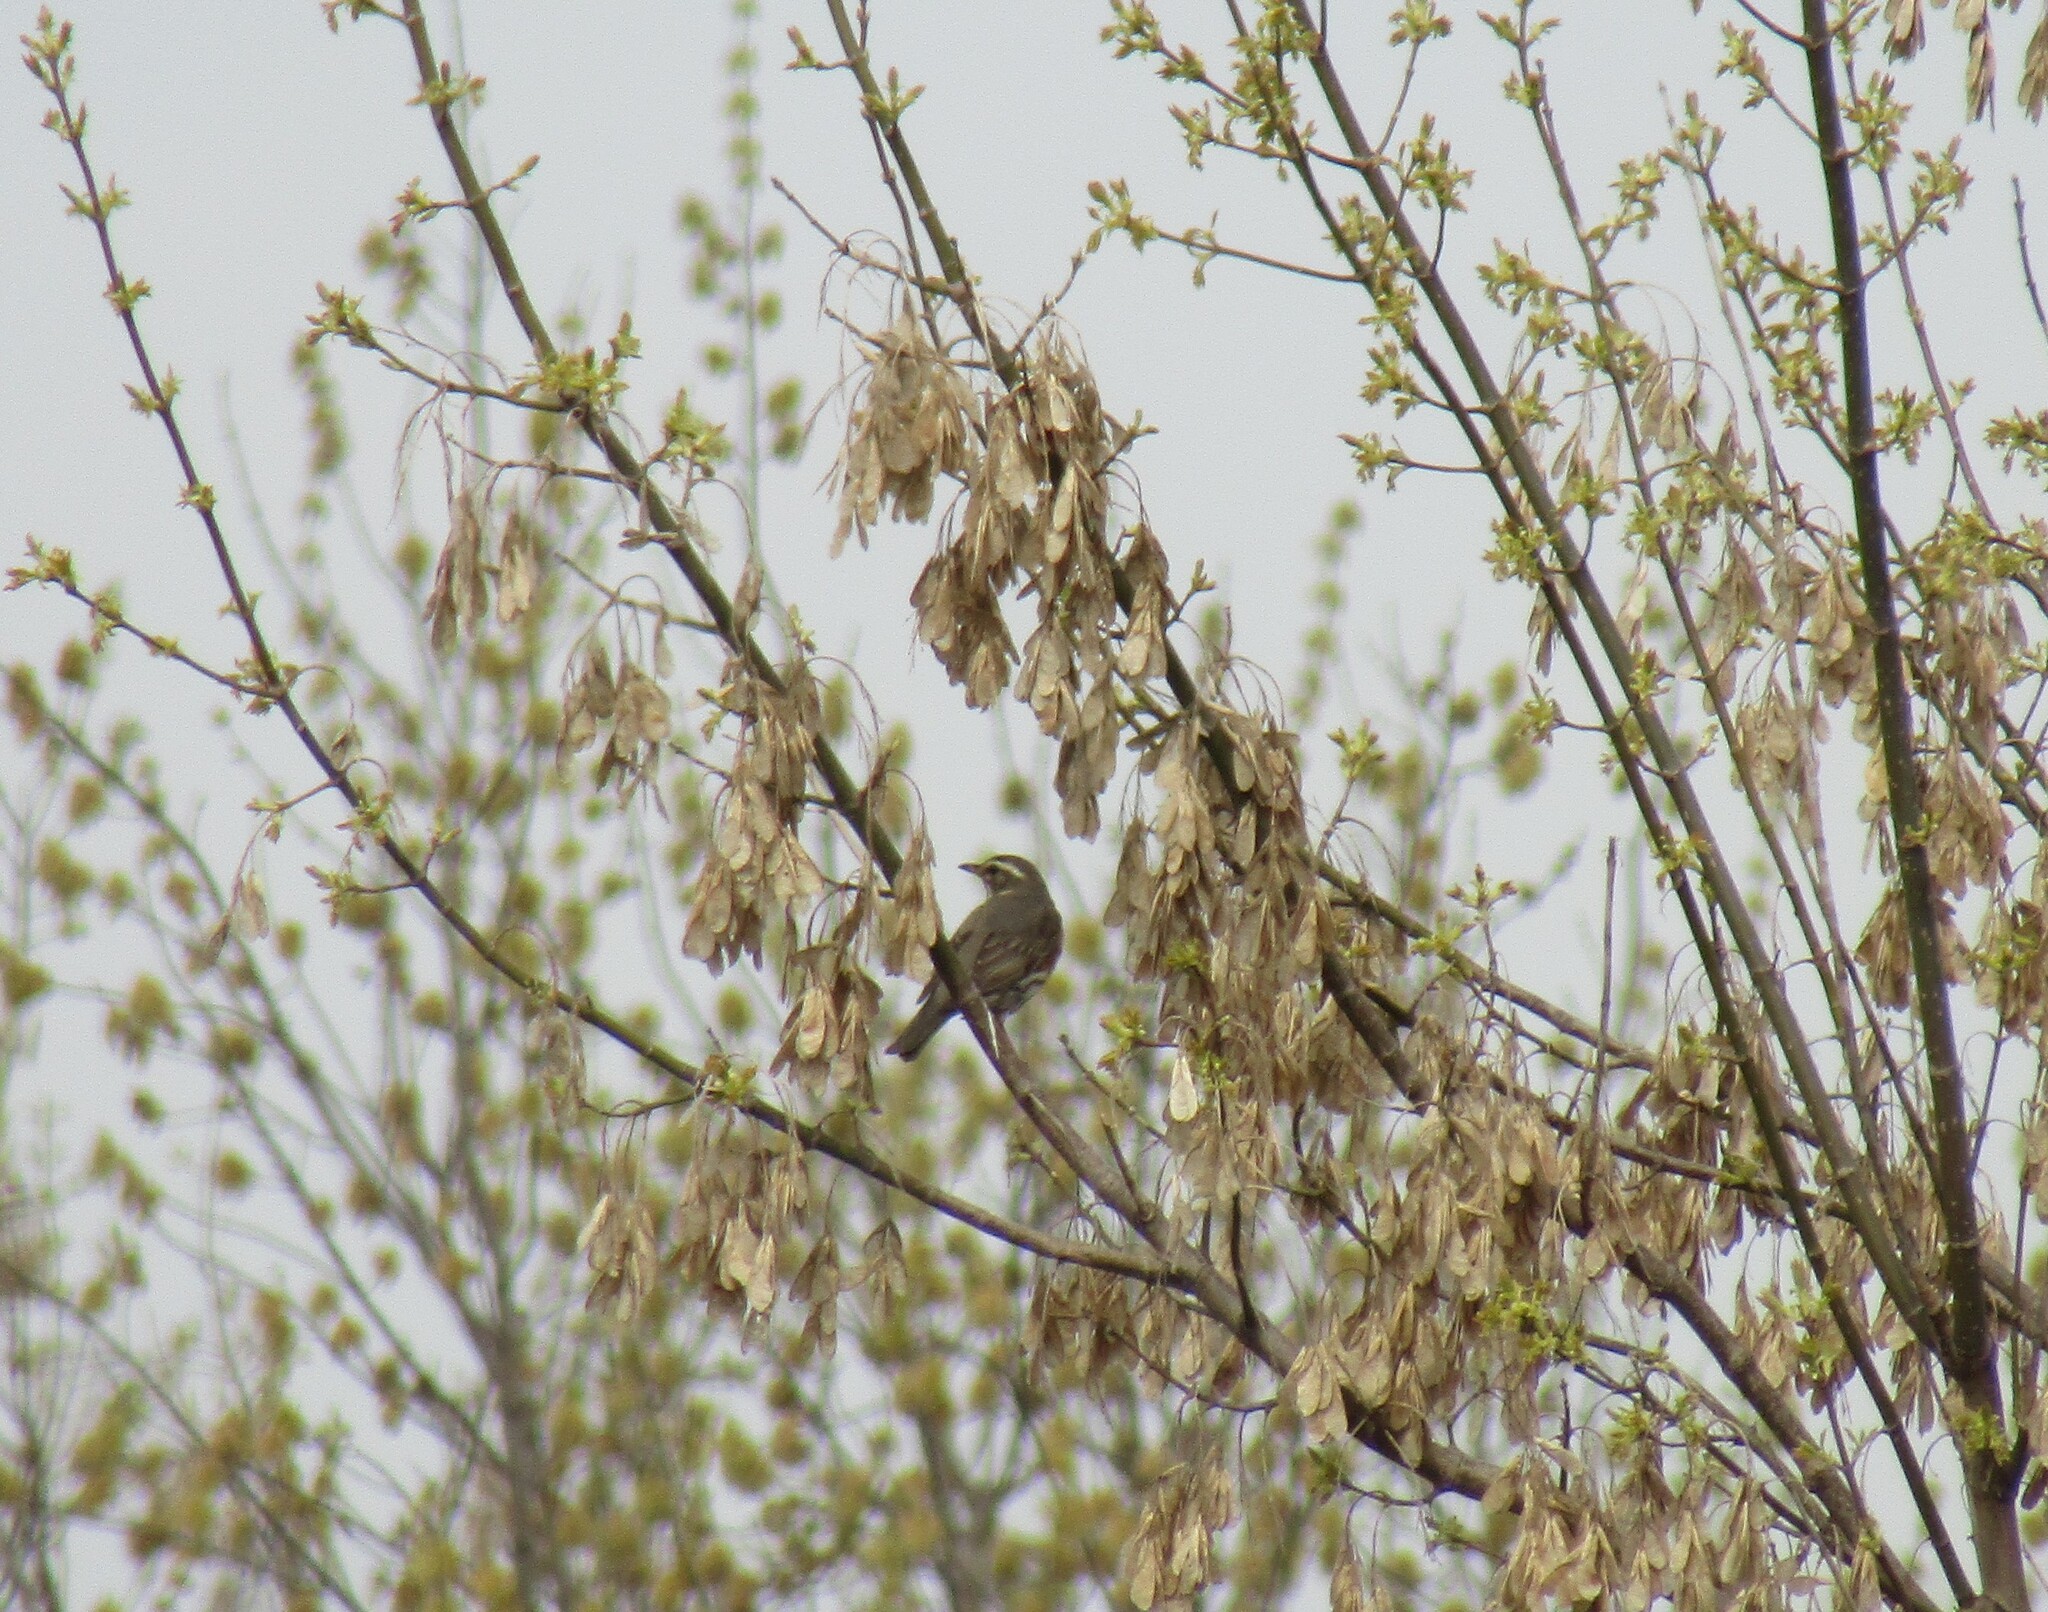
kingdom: Animalia
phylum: Chordata
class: Aves
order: Passeriformes
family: Turdidae
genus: Turdus
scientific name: Turdus iliacus
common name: Redwing
